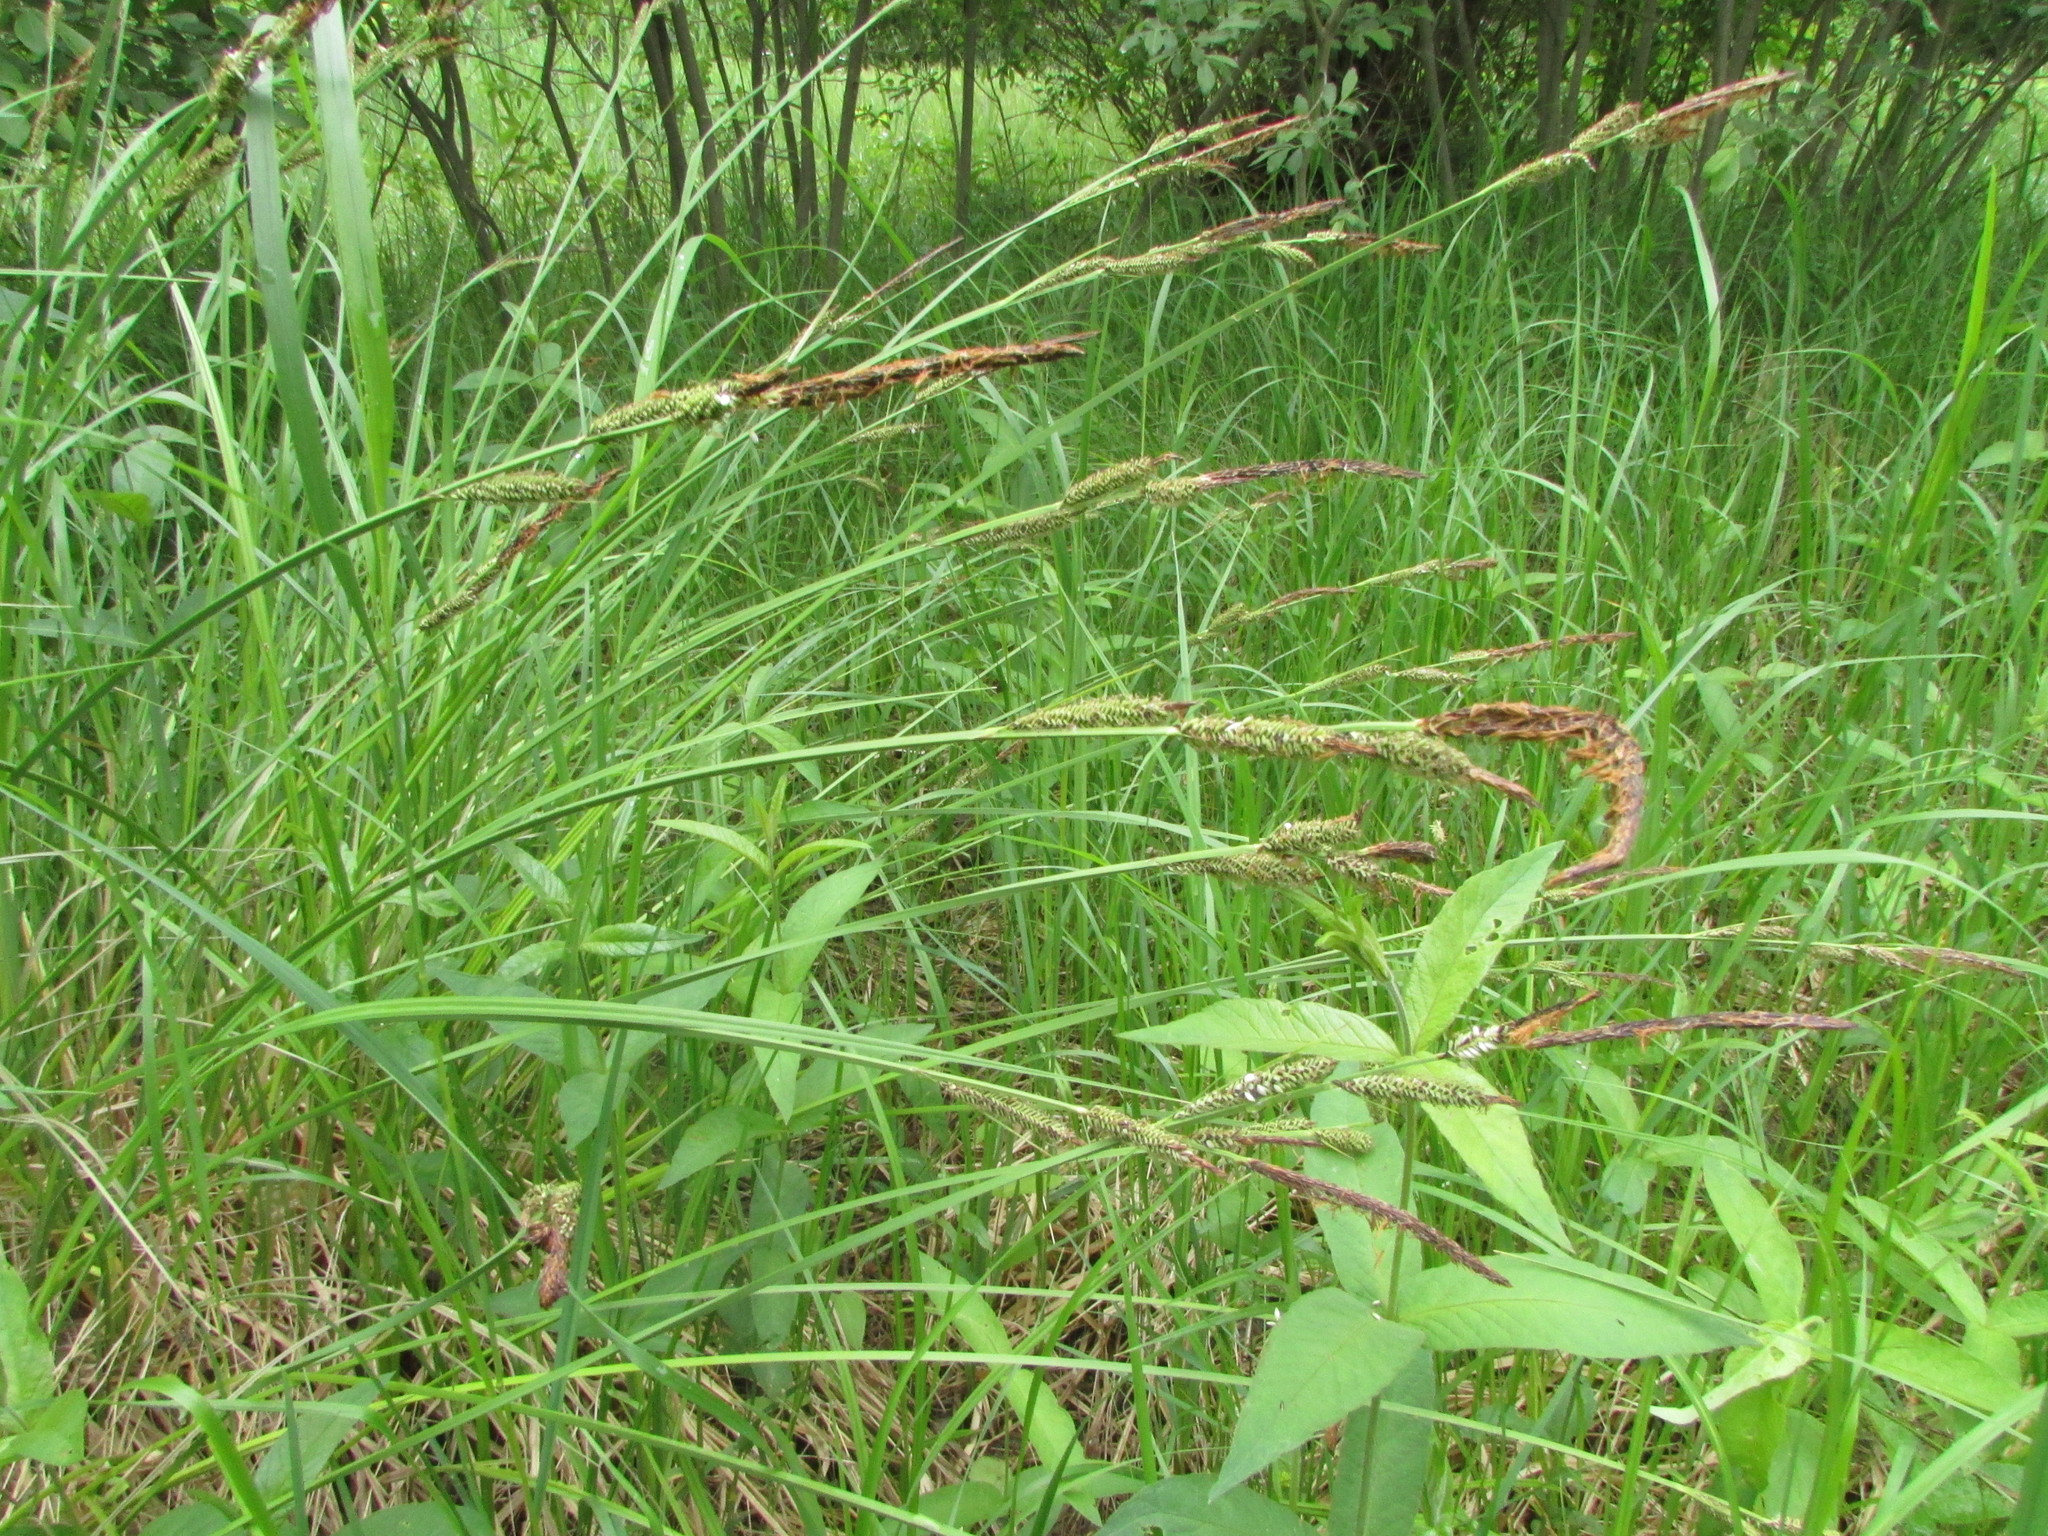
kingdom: Plantae
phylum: Tracheophyta
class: Liliopsida
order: Poales
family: Cyperaceae
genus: Carex
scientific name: Carex elata
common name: Tufted sedge
